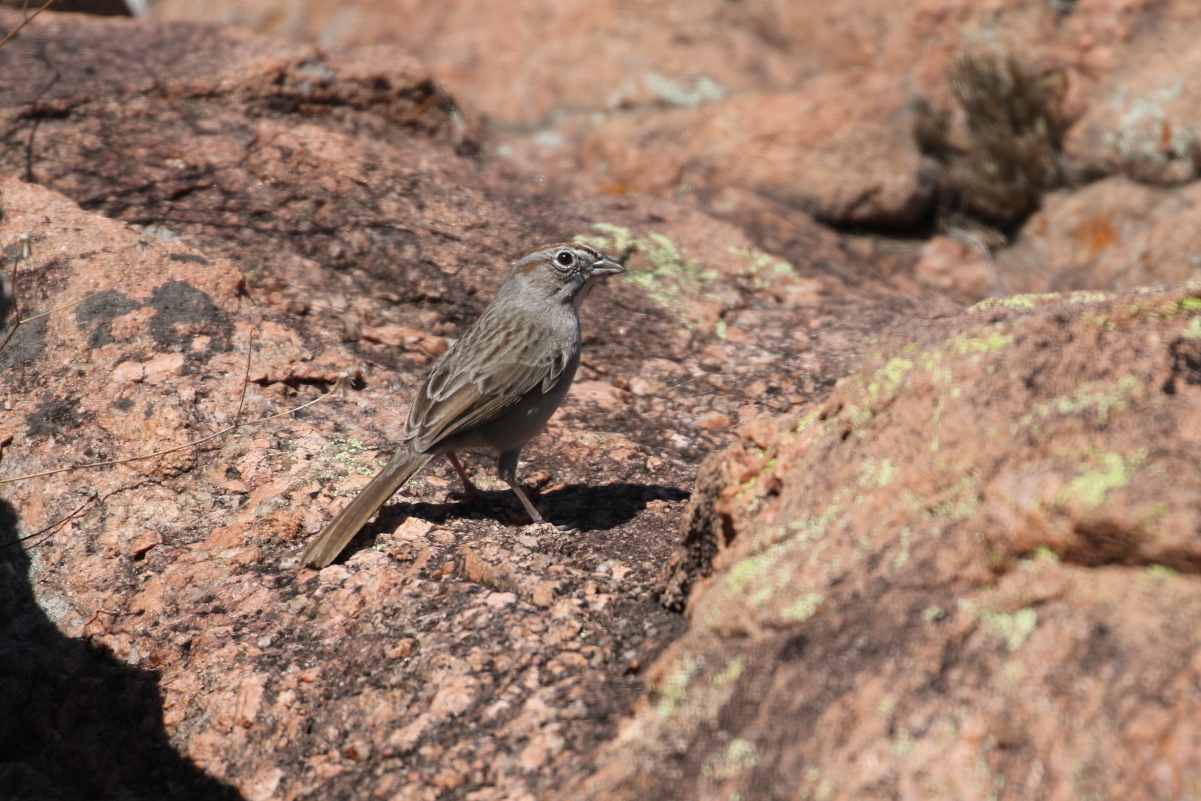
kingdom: Animalia
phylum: Chordata
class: Aves
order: Passeriformes
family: Passerellidae
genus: Aimophila
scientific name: Aimophila ruficeps
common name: Rufous-crowned sparrow
